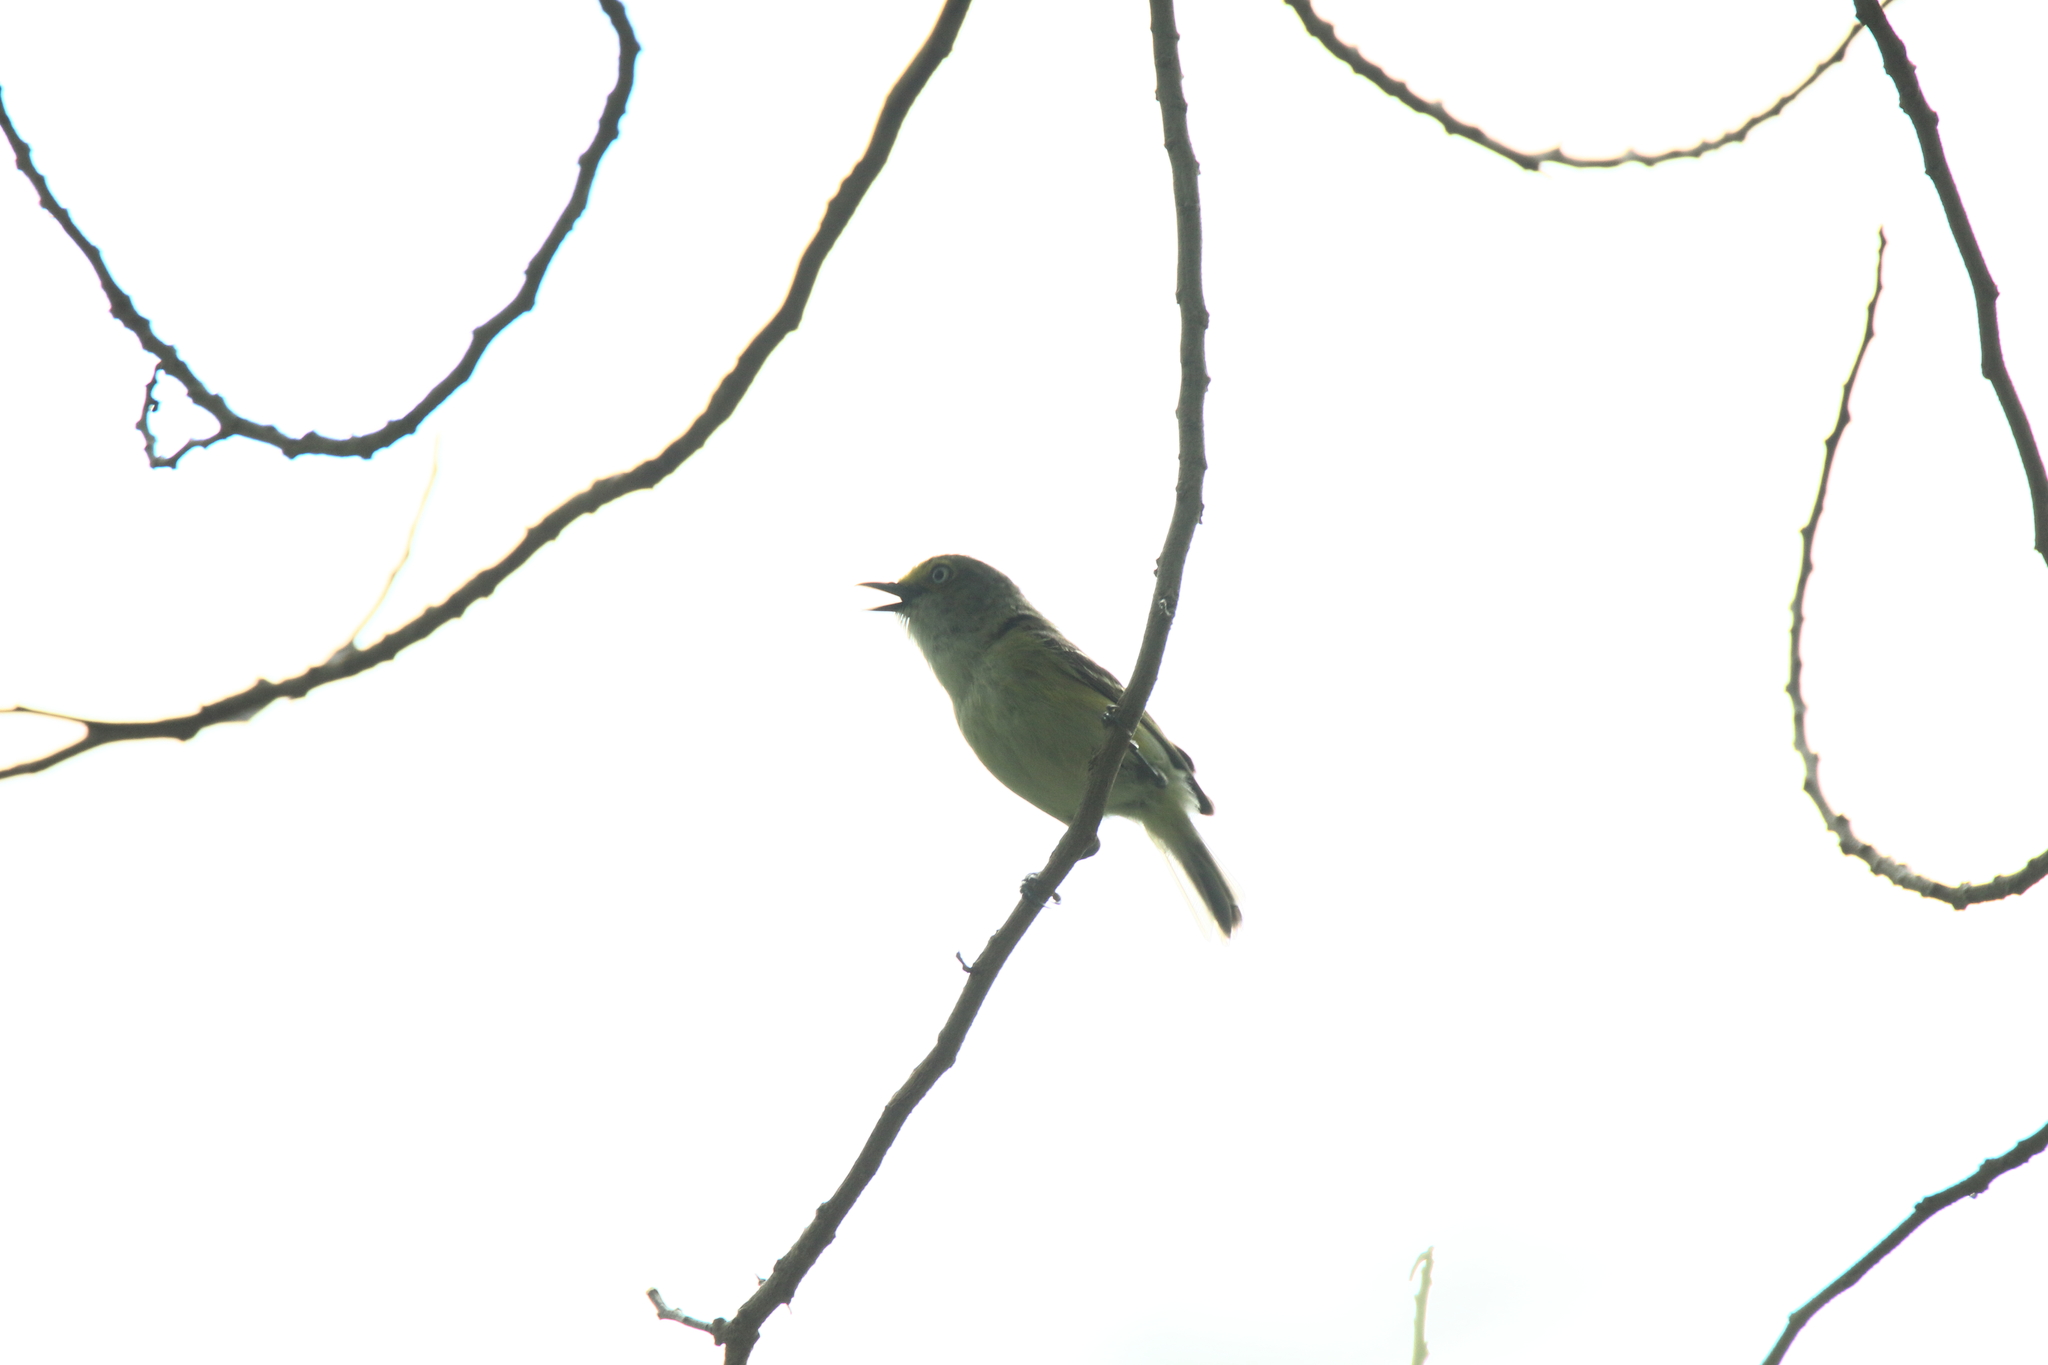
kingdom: Animalia
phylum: Chordata
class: Aves
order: Passeriformes
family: Vireonidae
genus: Vireo
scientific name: Vireo griseus
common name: White-eyed vireo
